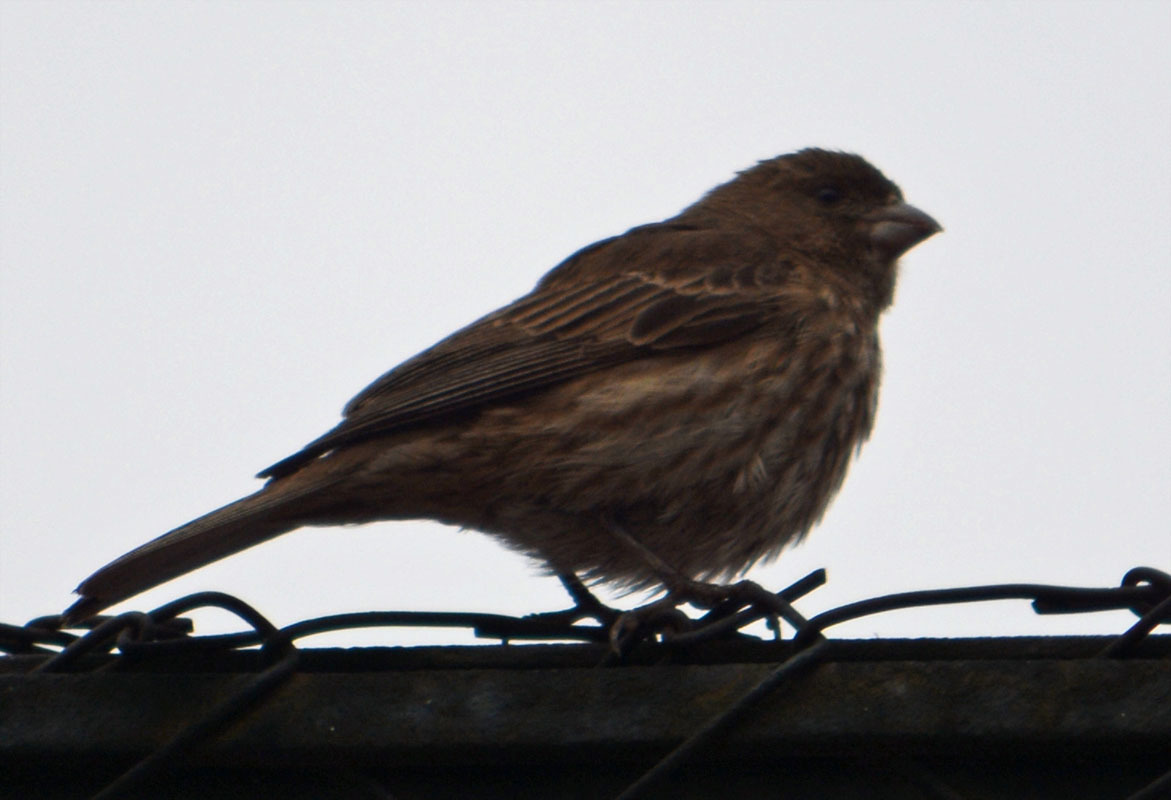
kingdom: Animalia
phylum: Chordata
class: Aves
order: Passeriformes
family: Fringillidae
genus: Haemorhous
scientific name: Haemorhous mexicanus
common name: House finch
